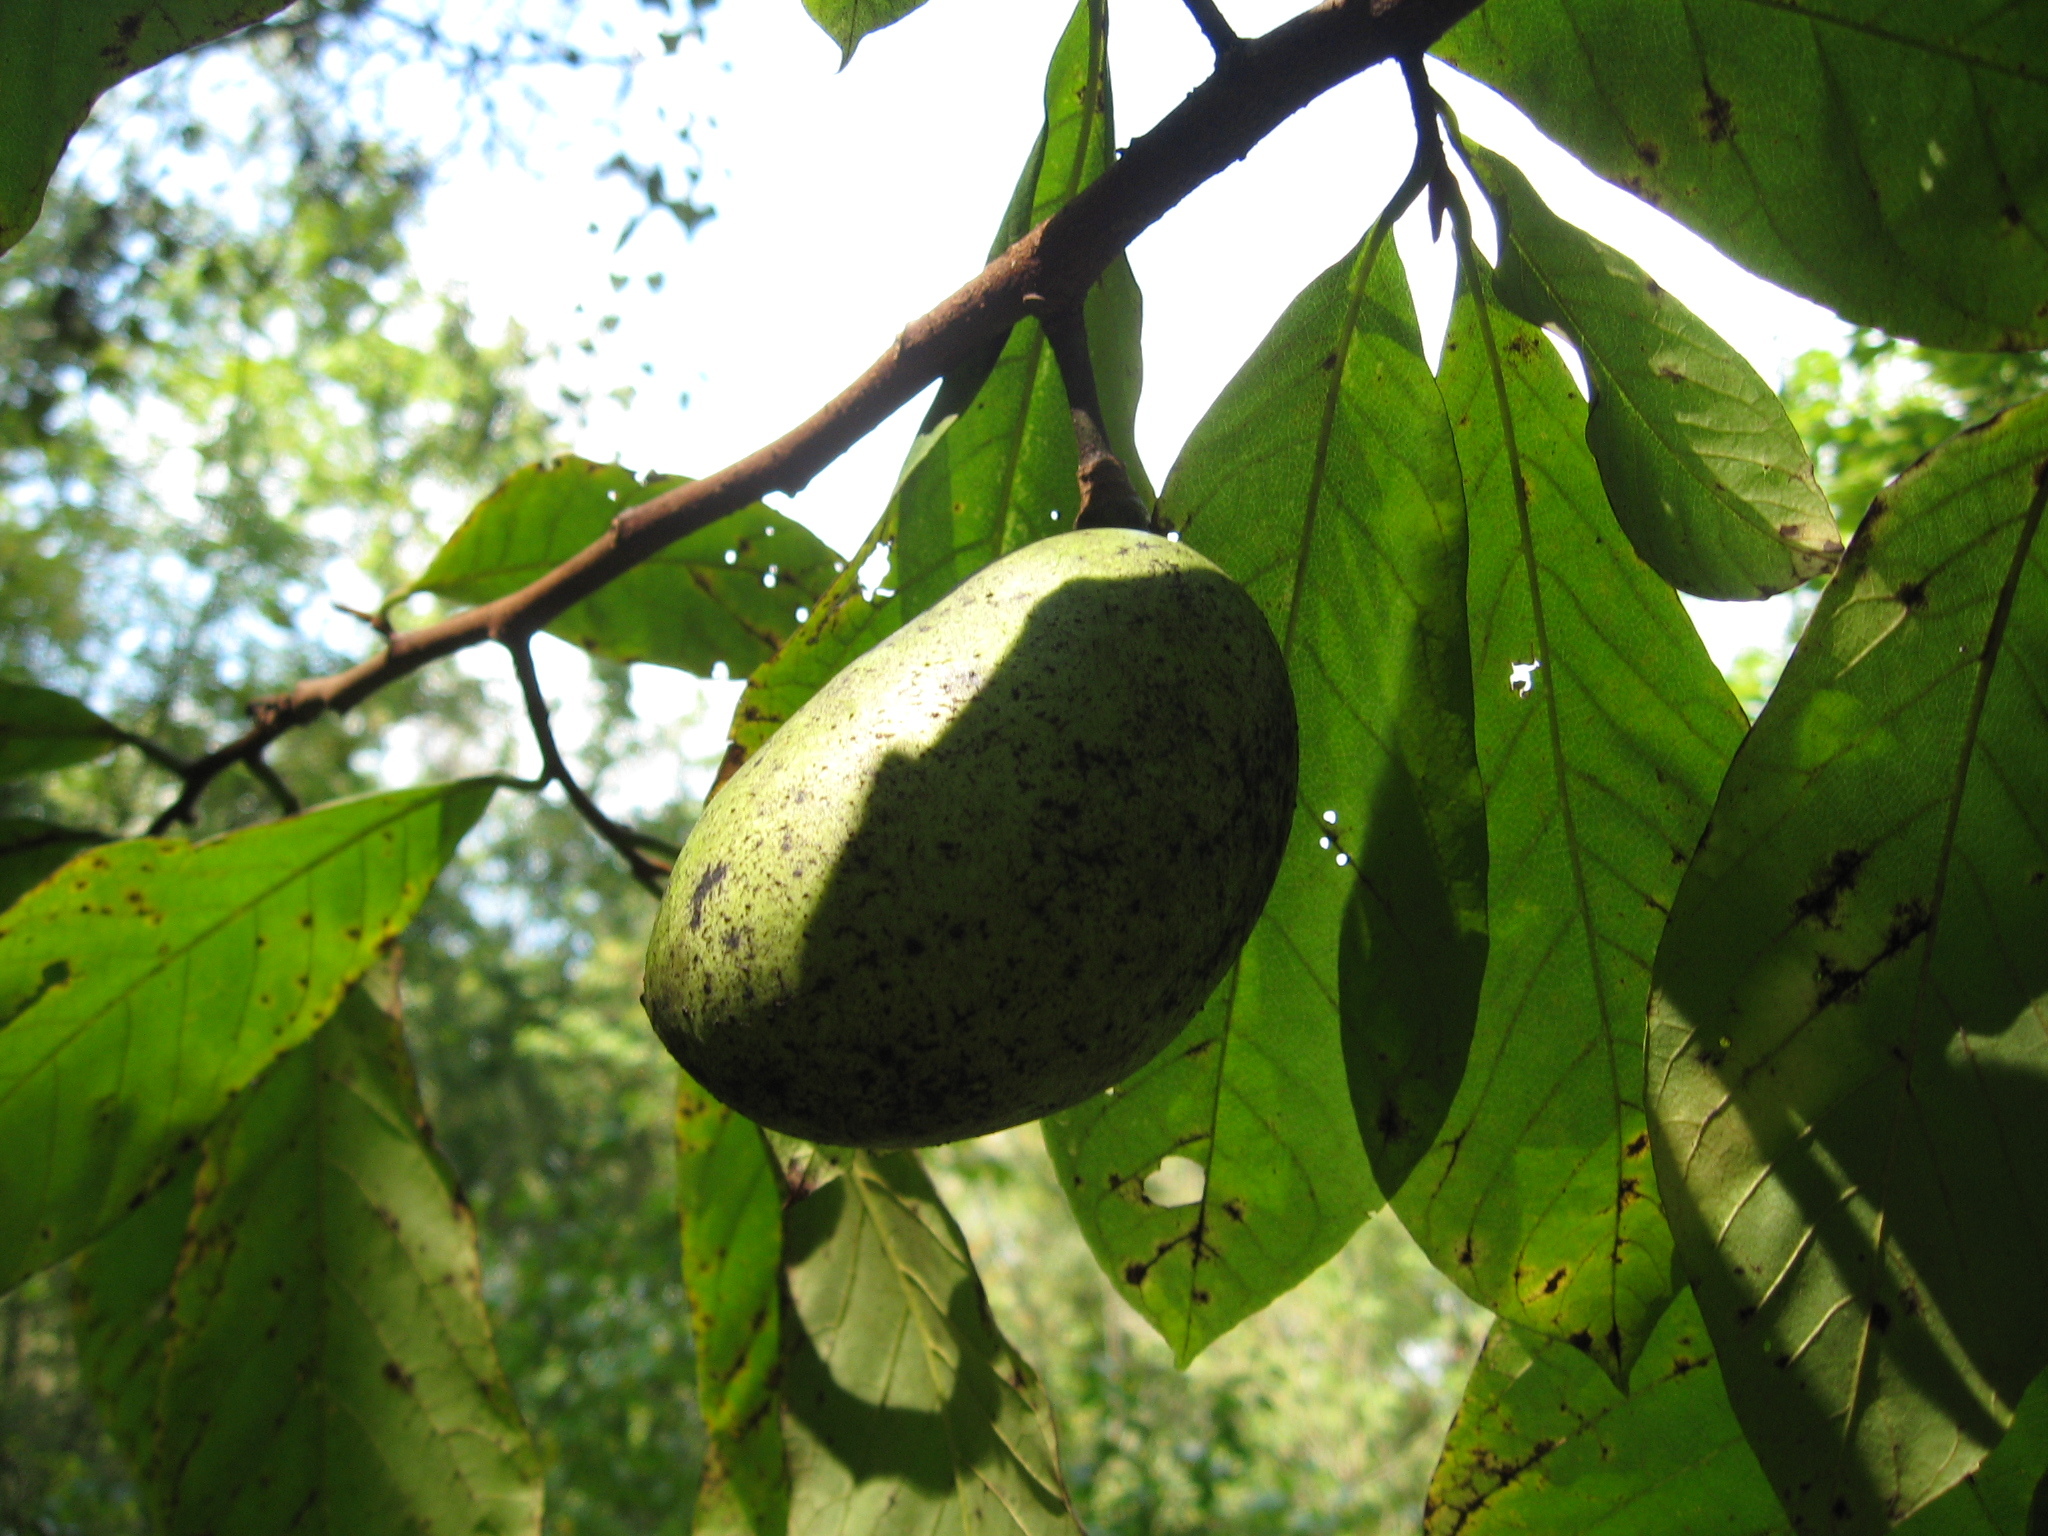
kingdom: Plantae
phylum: Tracheophyta
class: Magnoliopsida
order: Magnoliales
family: Annonaceae
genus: Asimina
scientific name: Asimina triloba
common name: Dog-banana
